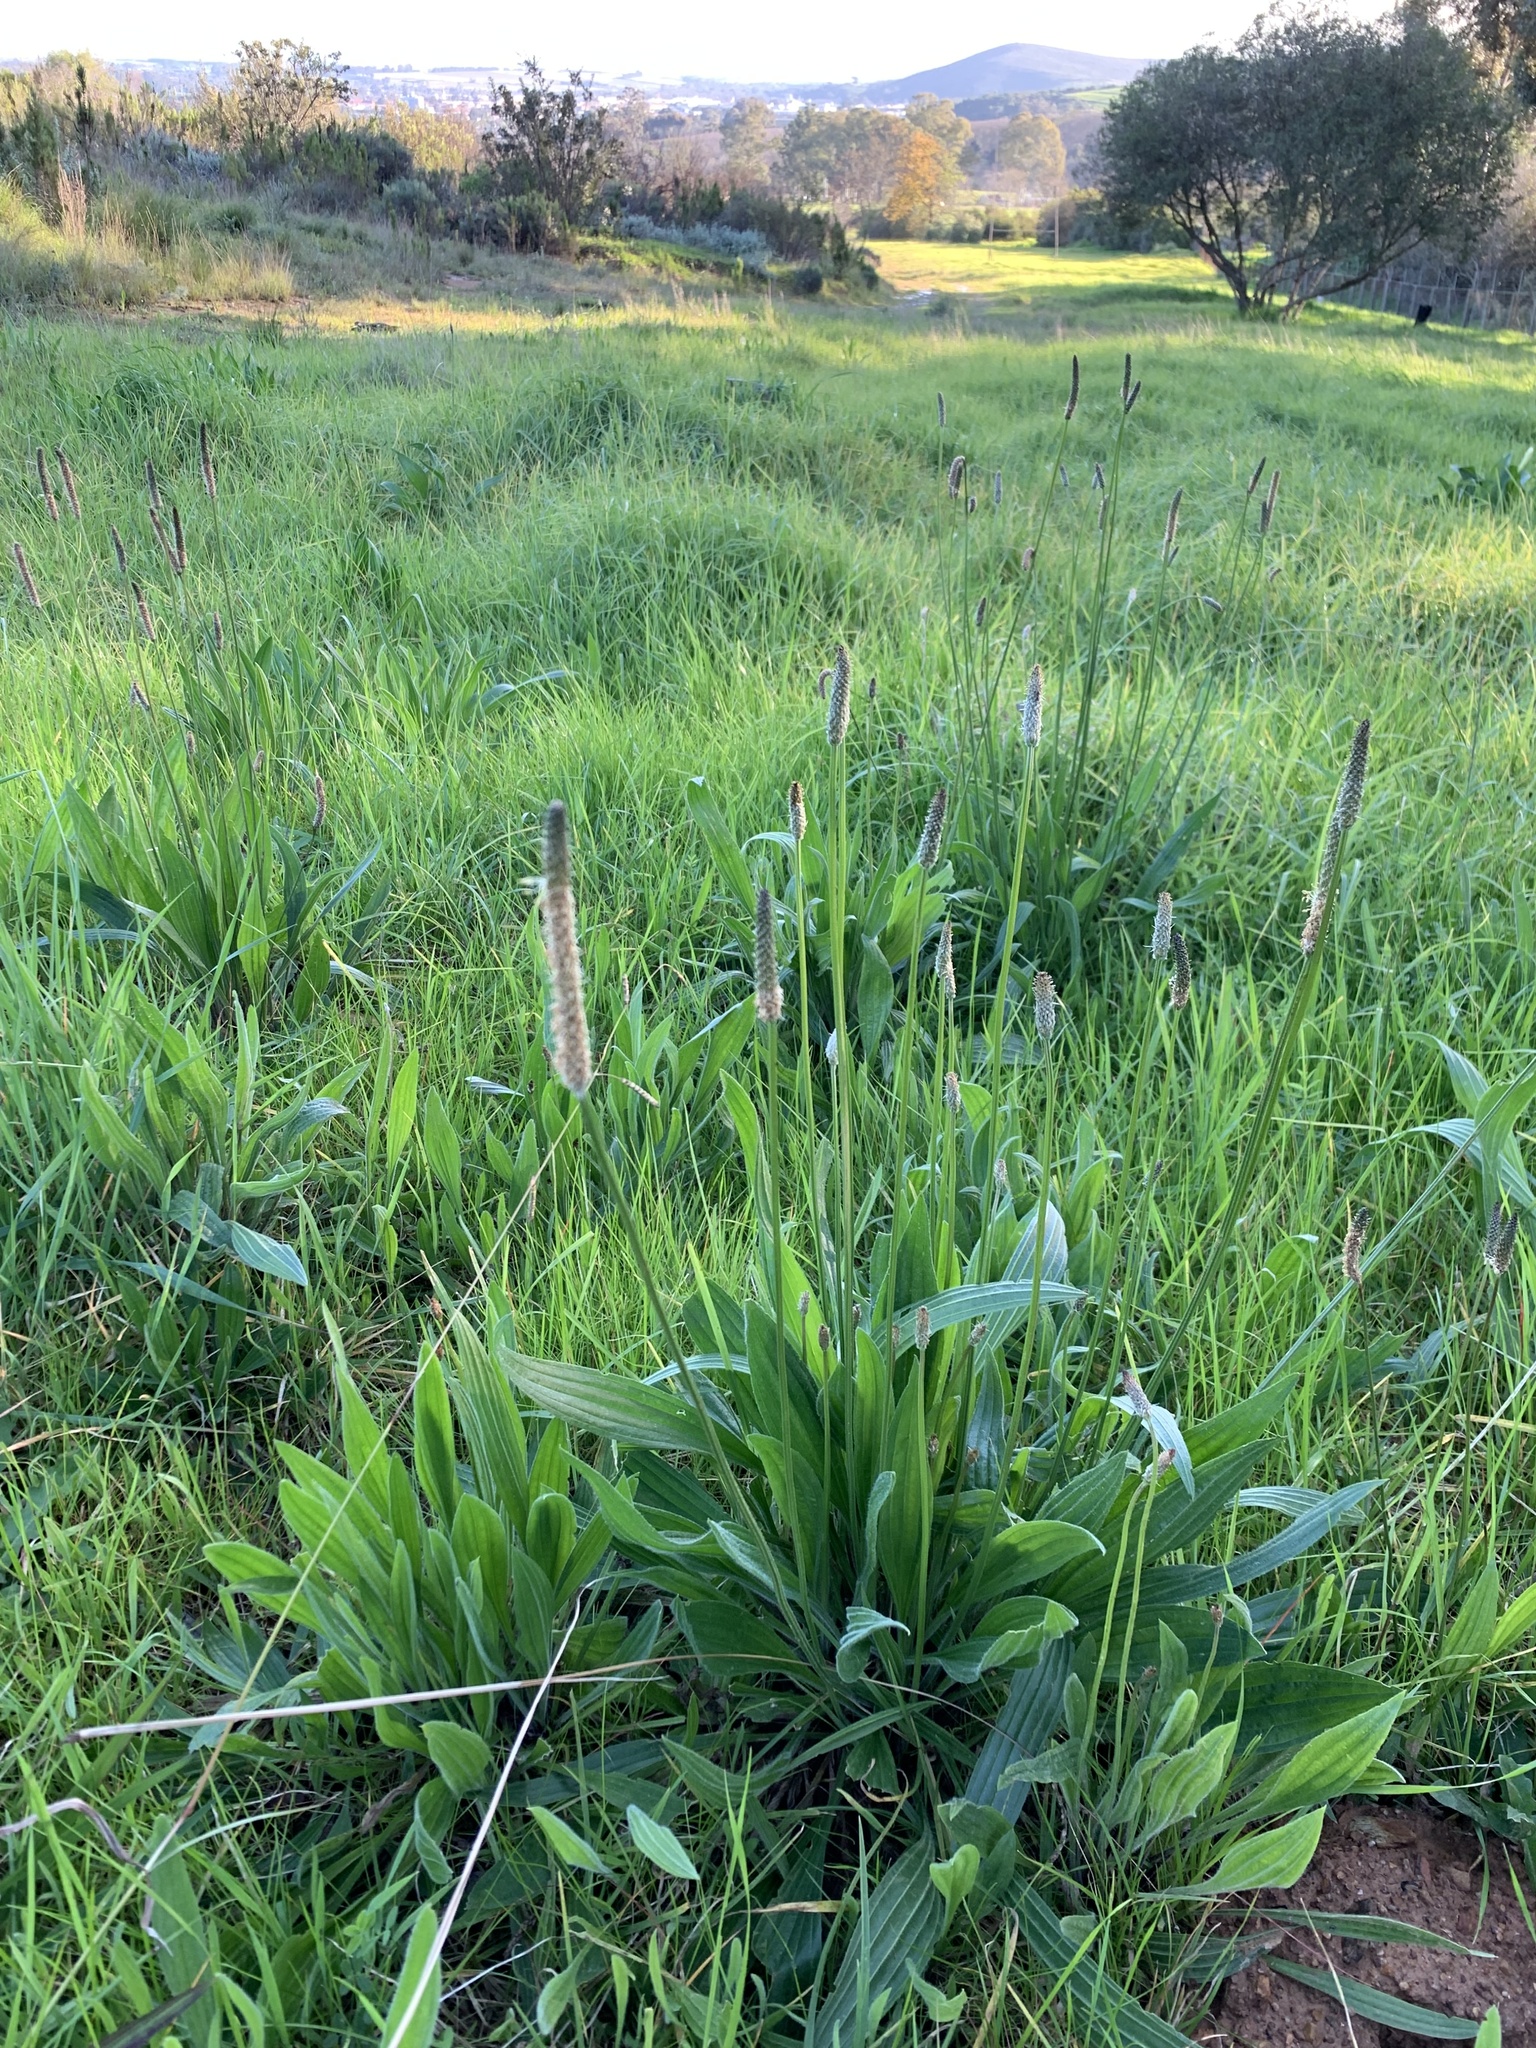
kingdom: Plantae
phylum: Tracheophyta
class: Magnoliopsida
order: Lamiales
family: Plantaginaceae
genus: Plantago
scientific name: Plantago lanceolata
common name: Ribwort plantain
